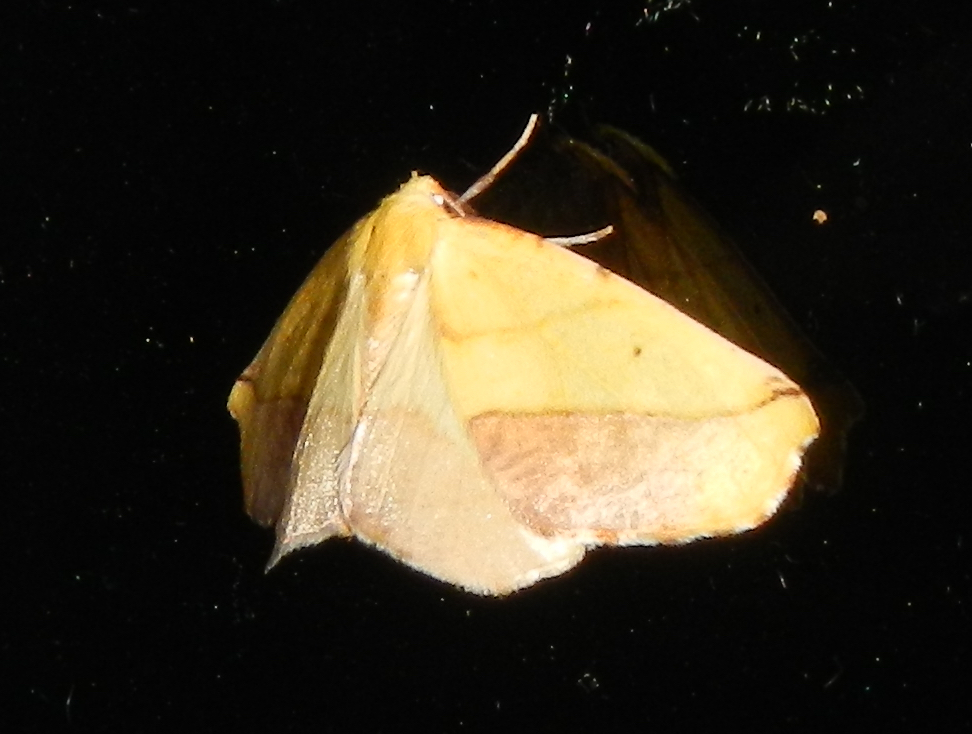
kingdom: Animalia
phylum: Arthropoda
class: Insecta
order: Lepidoptera
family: Geometridae
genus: Sicya
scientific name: Sicya macularia
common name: Sharp-lined yellow
